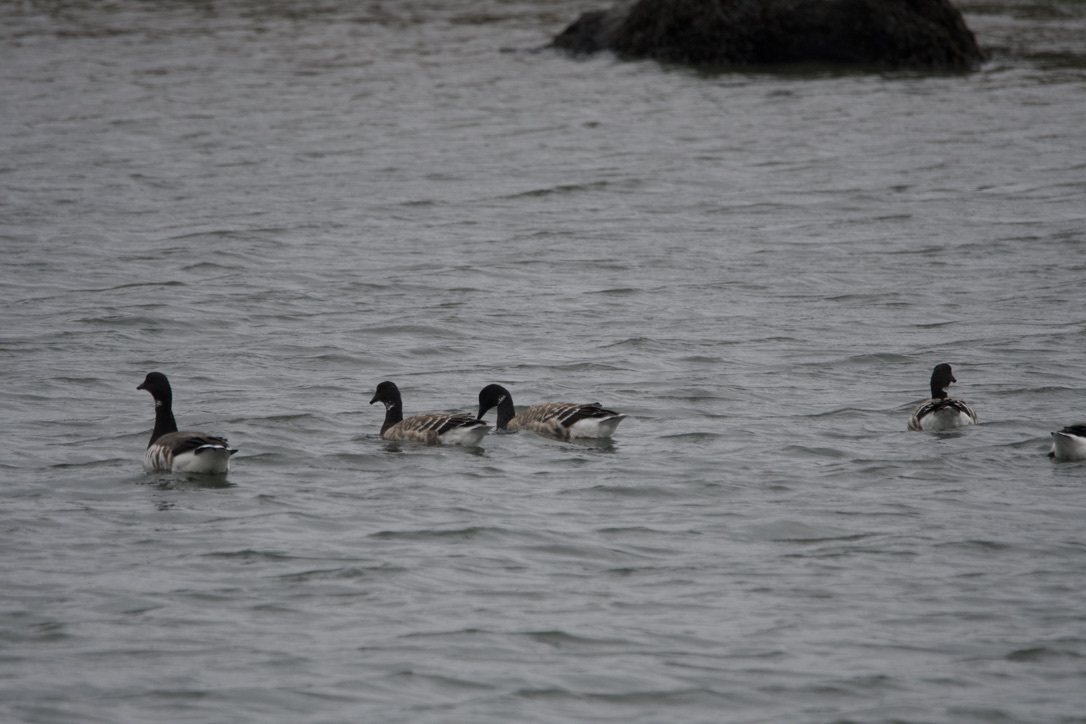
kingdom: Animalia
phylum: Chordata
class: Aves
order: Anseriformes
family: Anatidae
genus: Branta
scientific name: Branta bernicla
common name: Brant goose
